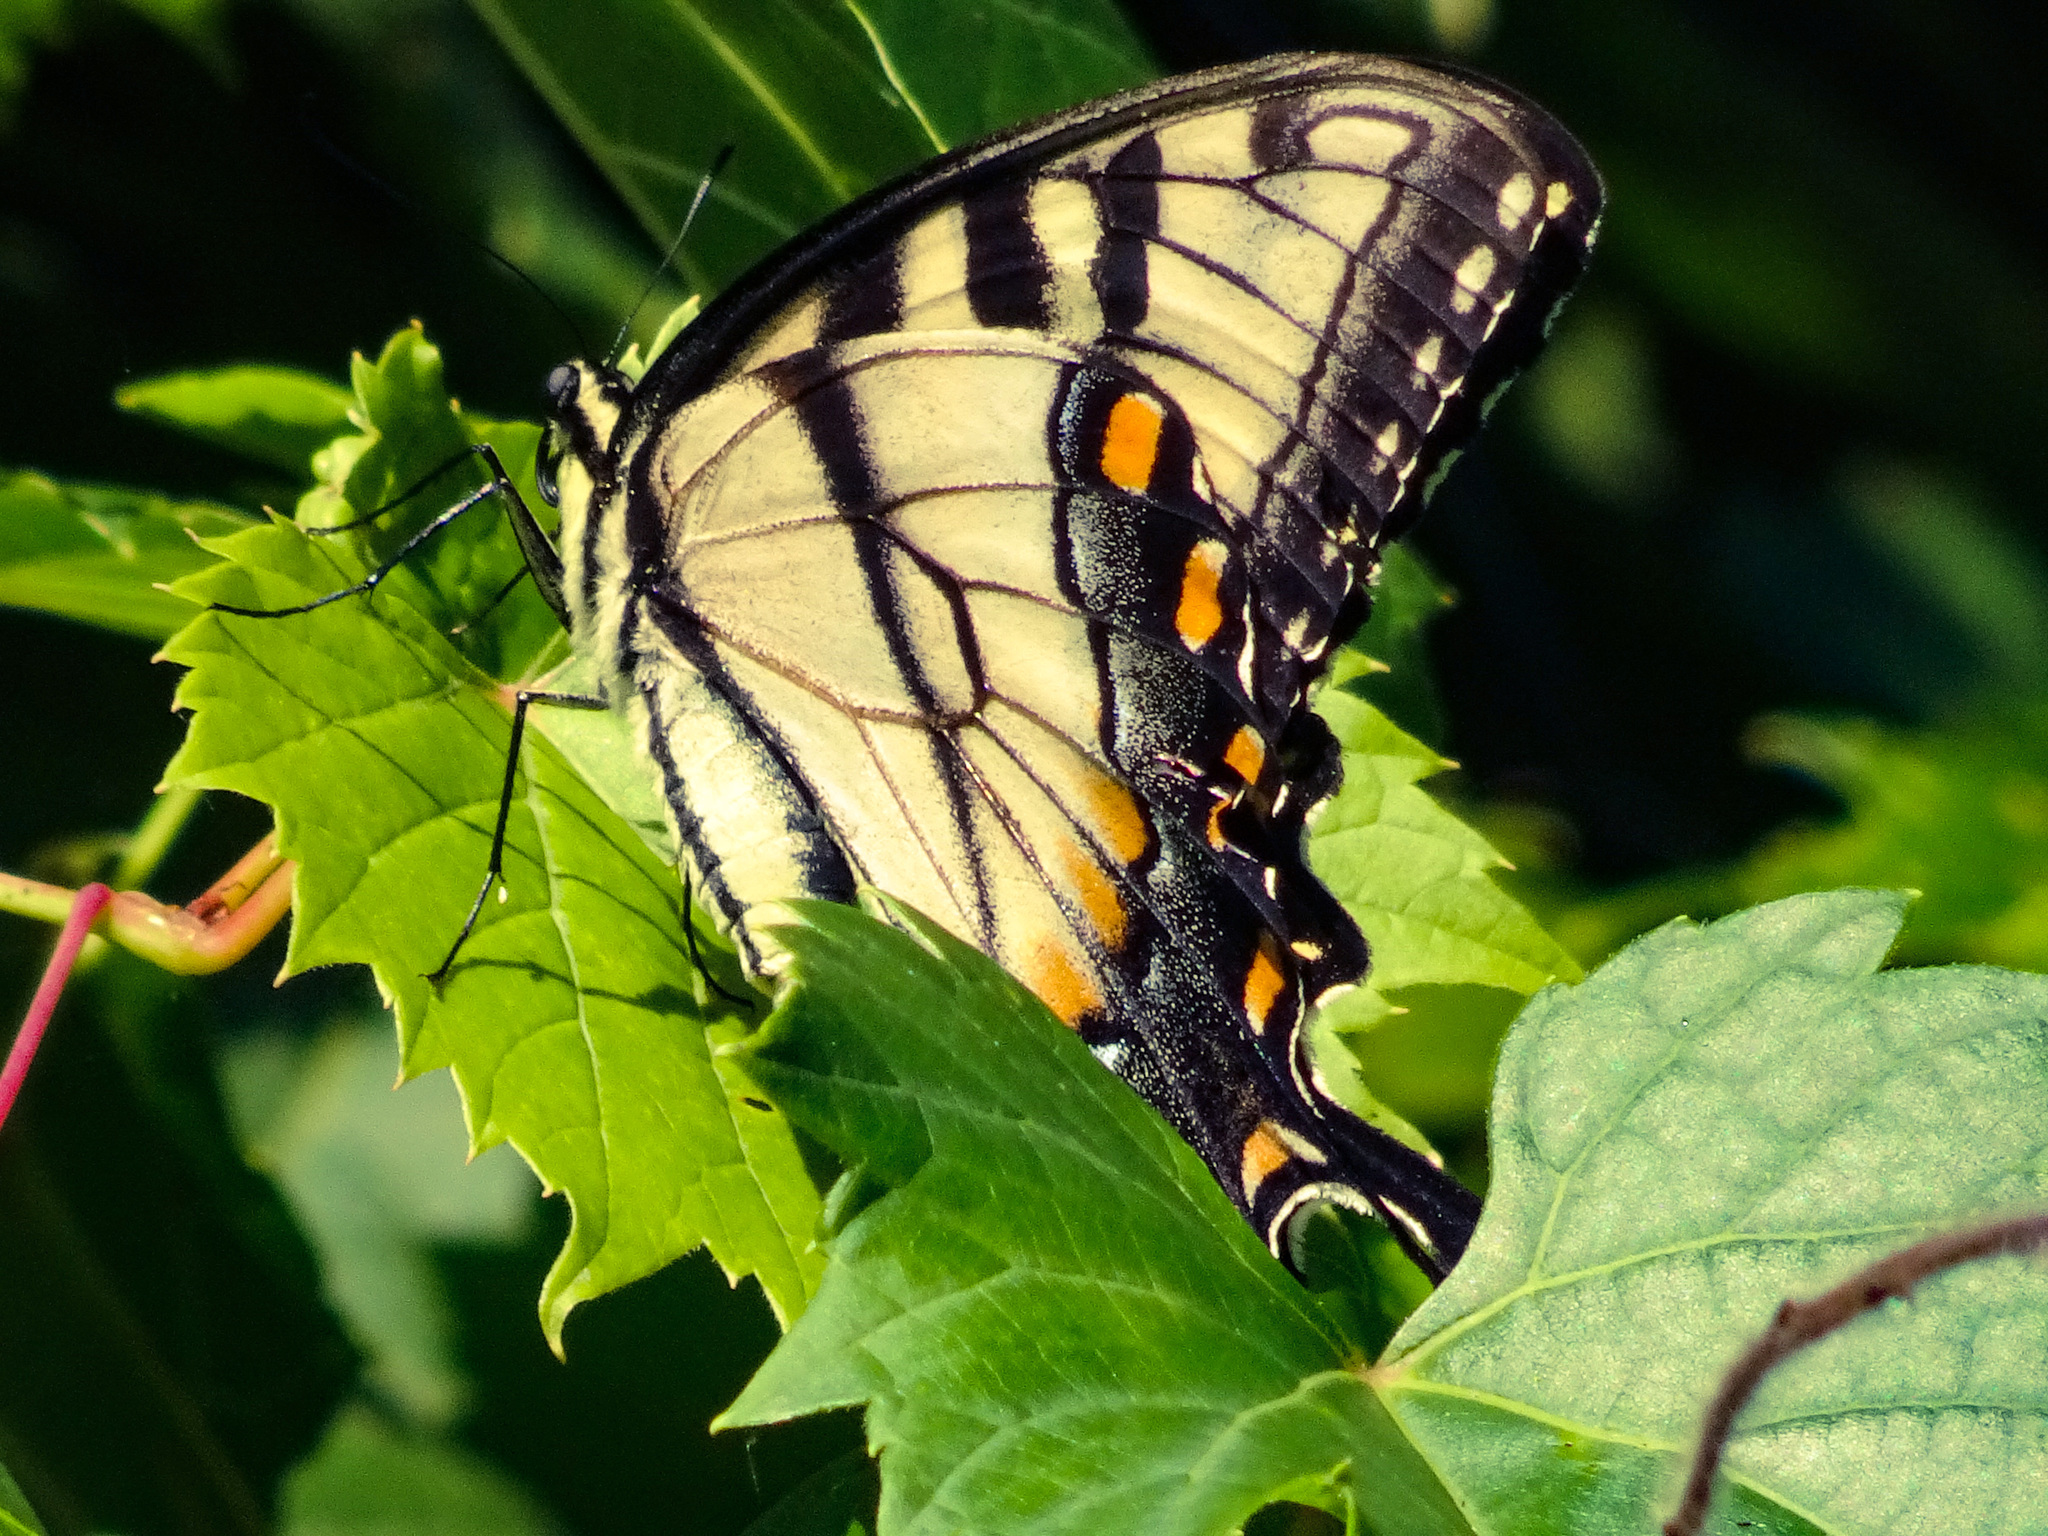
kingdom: Animalia
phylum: Arthropoda
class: Insecta
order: Lepidoptera
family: Papilionidae
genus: Papilio
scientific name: Papilio glaucus
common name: Tiger swallowtail
